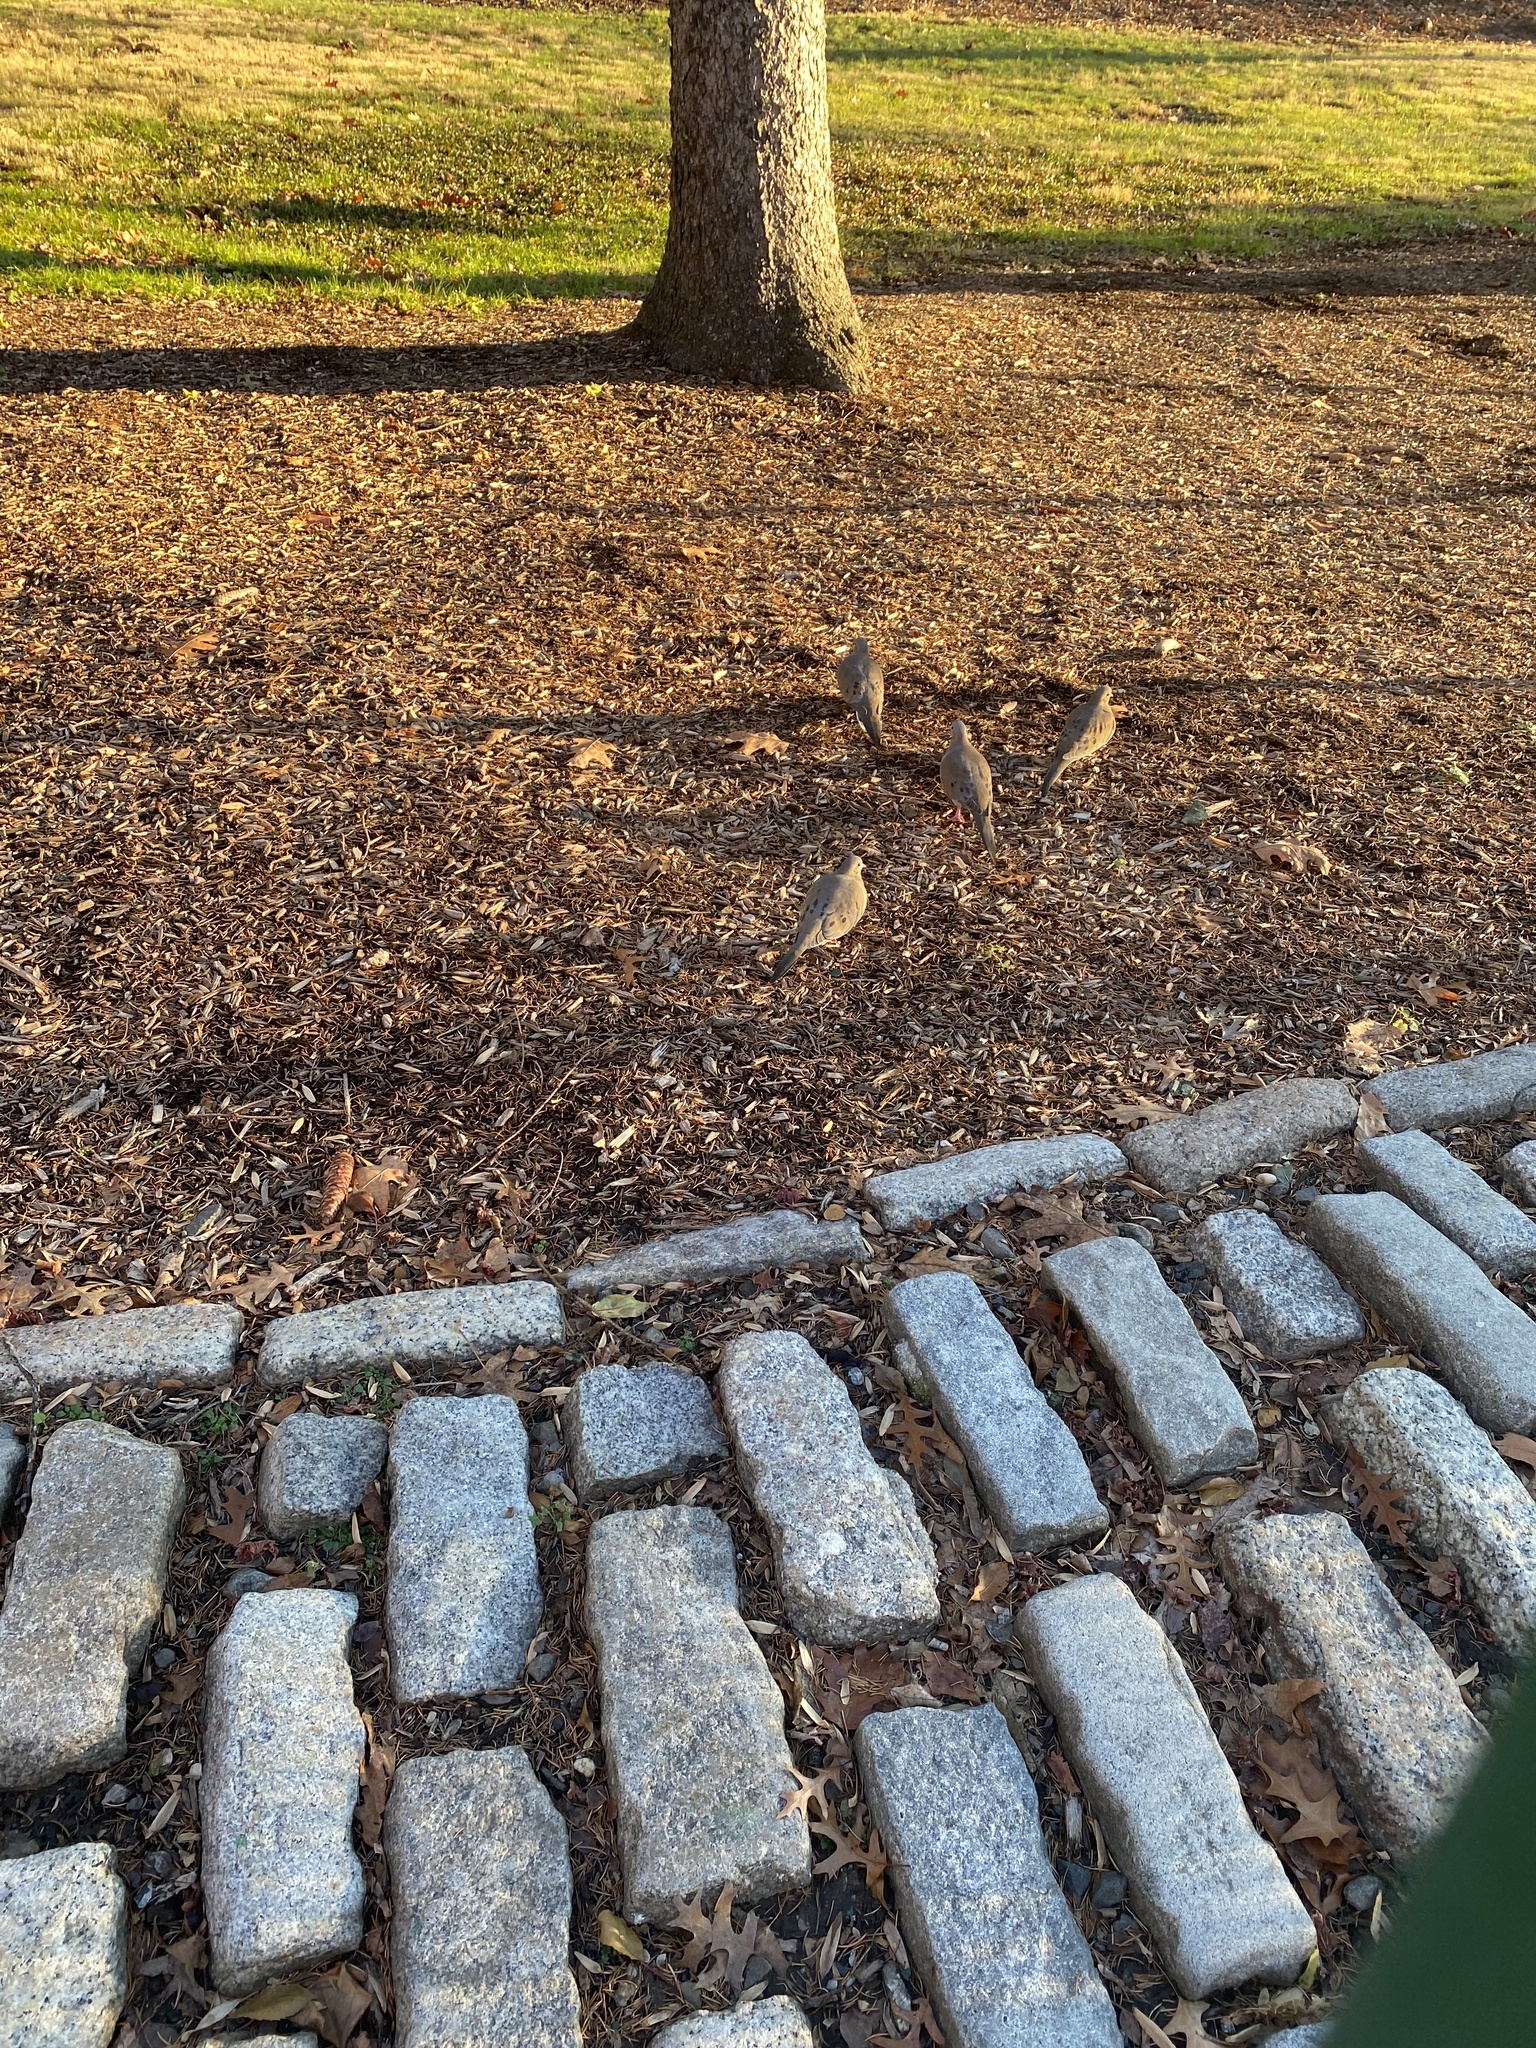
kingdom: Animalia
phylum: Chordata
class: Aves
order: Columbiformes
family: Columbidae
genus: Zenaida
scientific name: Zenaida macroura
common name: Mourning dove
